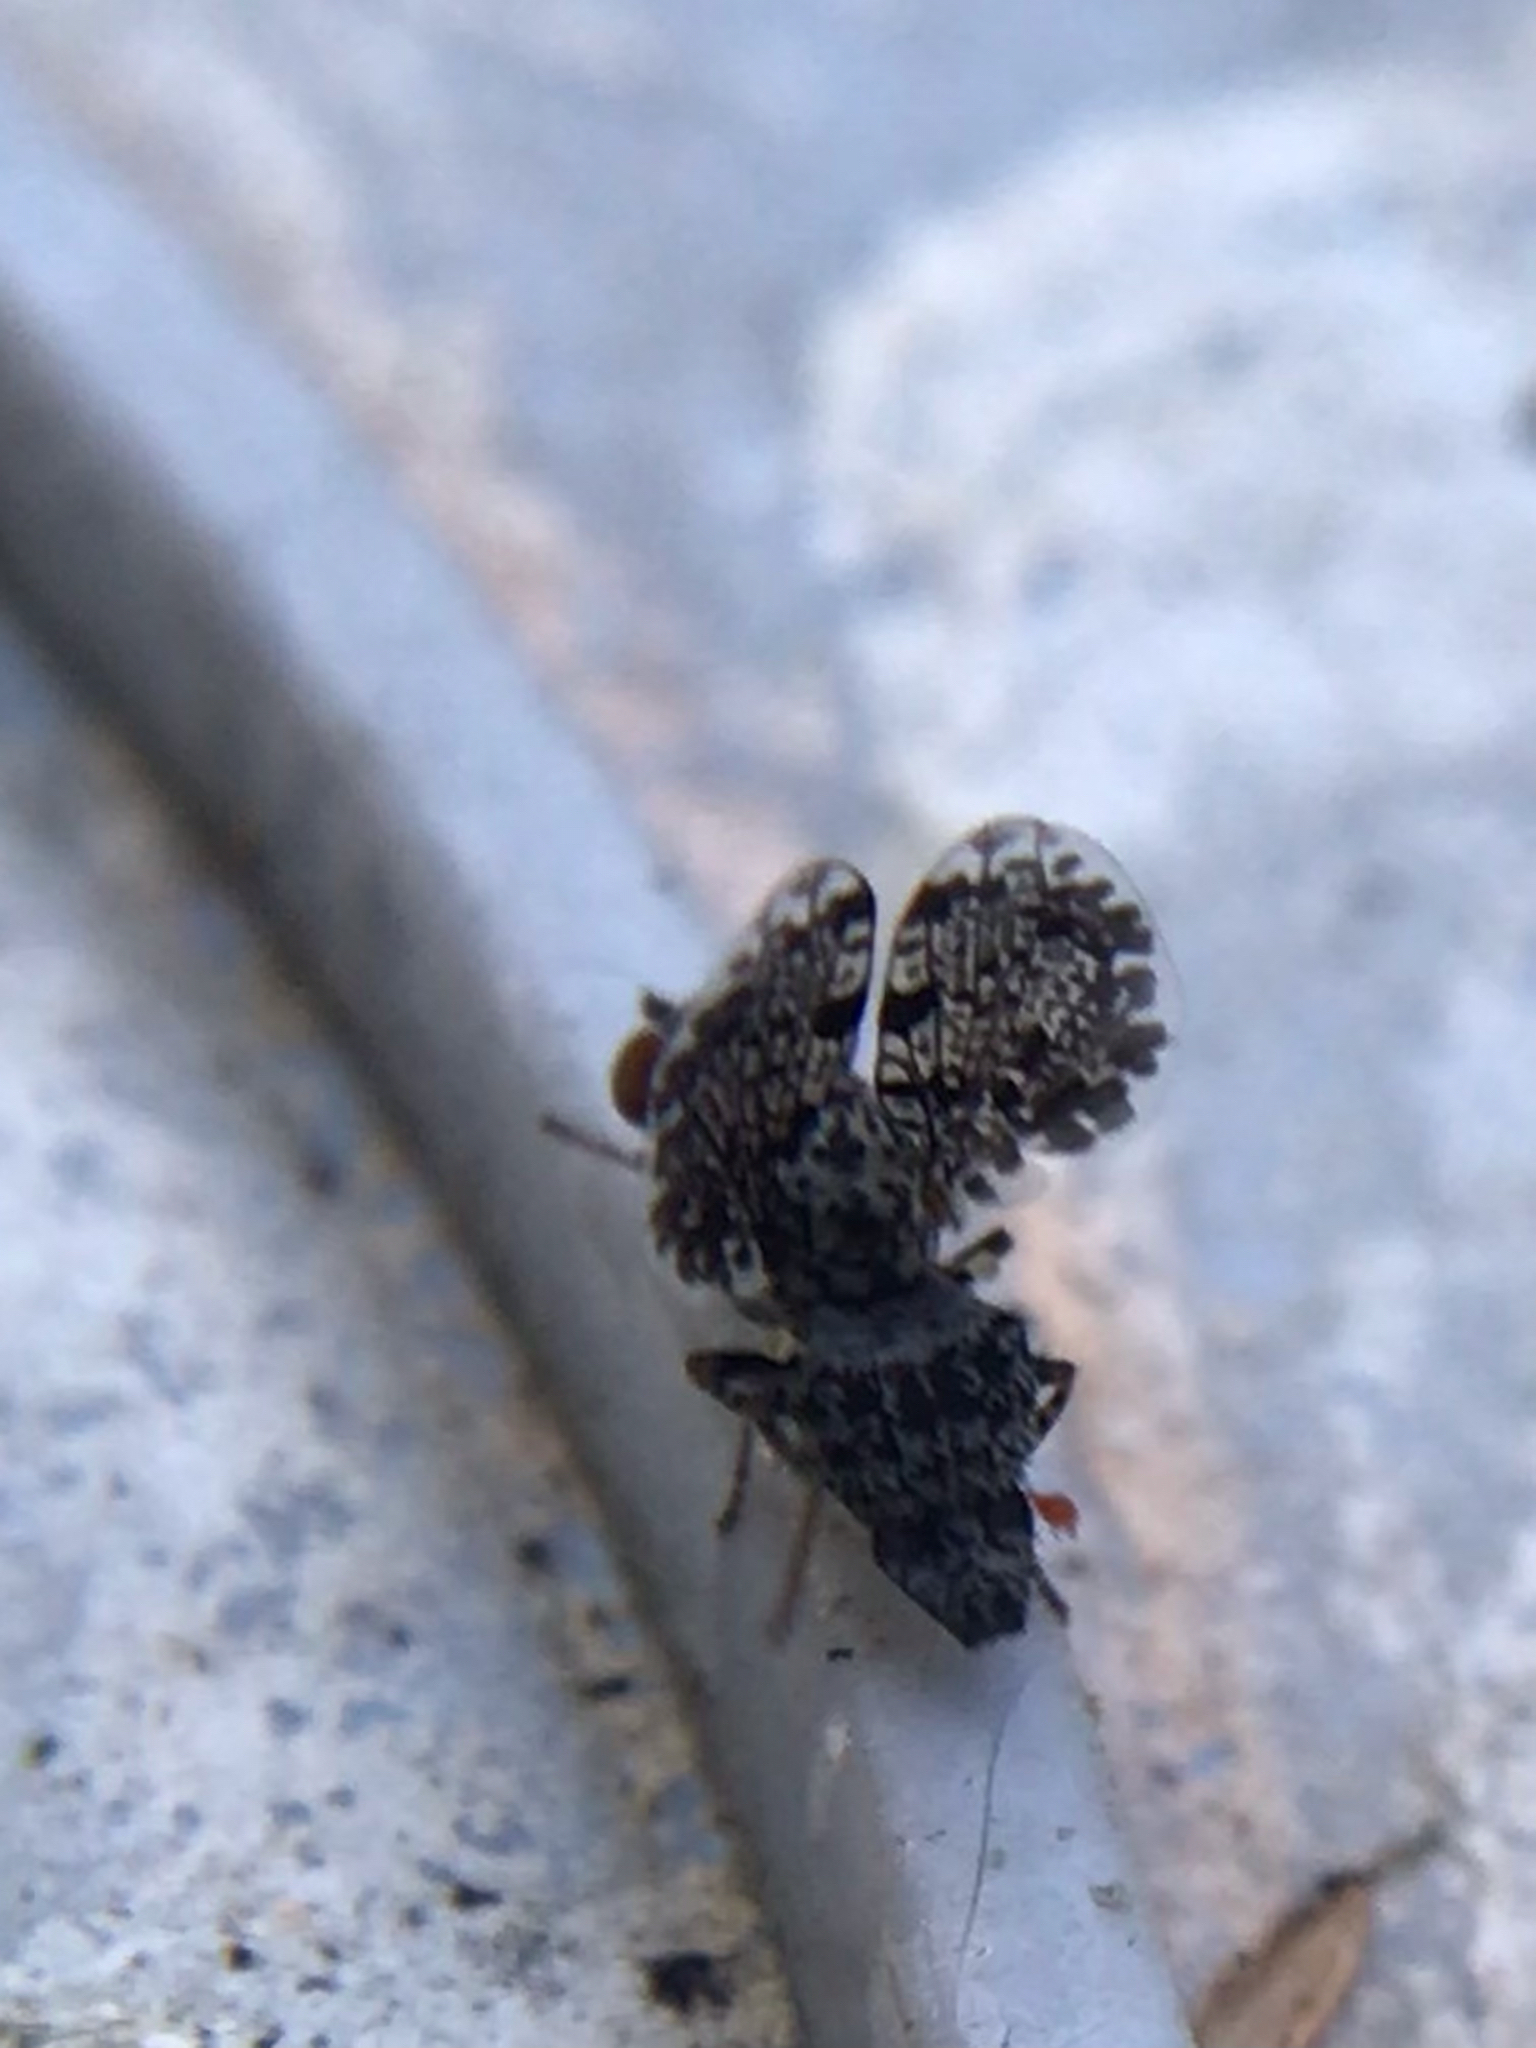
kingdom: Animalia
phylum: Arthropoda
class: Insecta
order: Diptera
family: Ulidiidae
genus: Callopistromyia
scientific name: Callopistromyia annulipes
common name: Peacock fly
